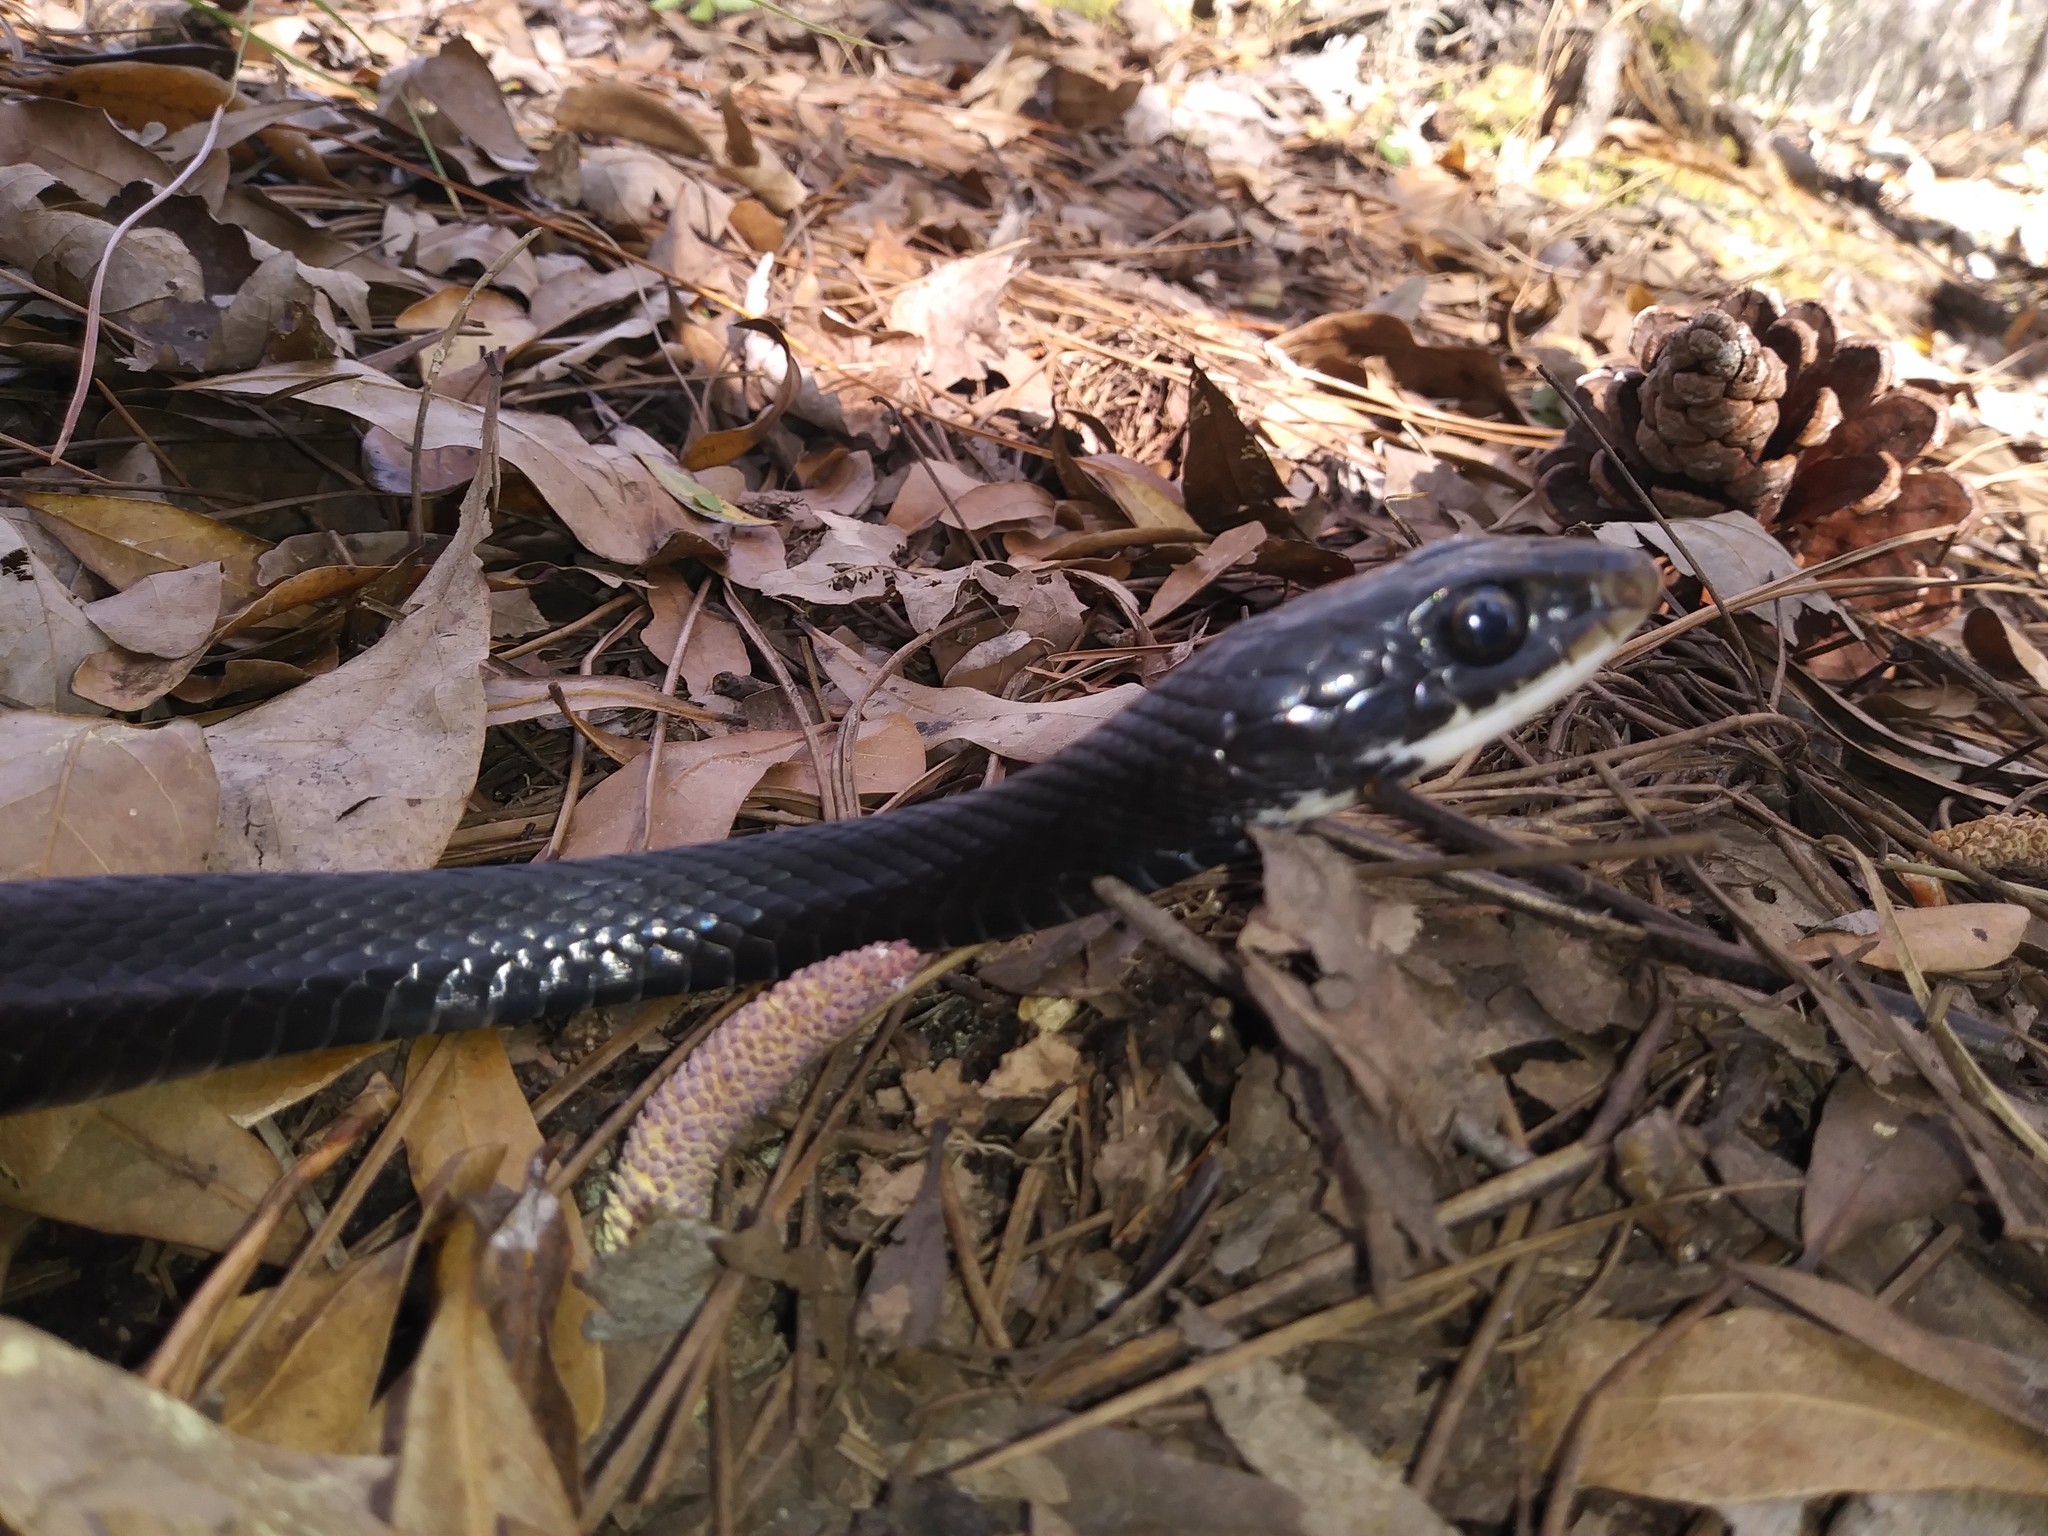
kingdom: Animalia
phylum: Chordata
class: Squamata
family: Colubridae
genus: Coluber
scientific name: Coluber constrictor
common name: Eastern racer
